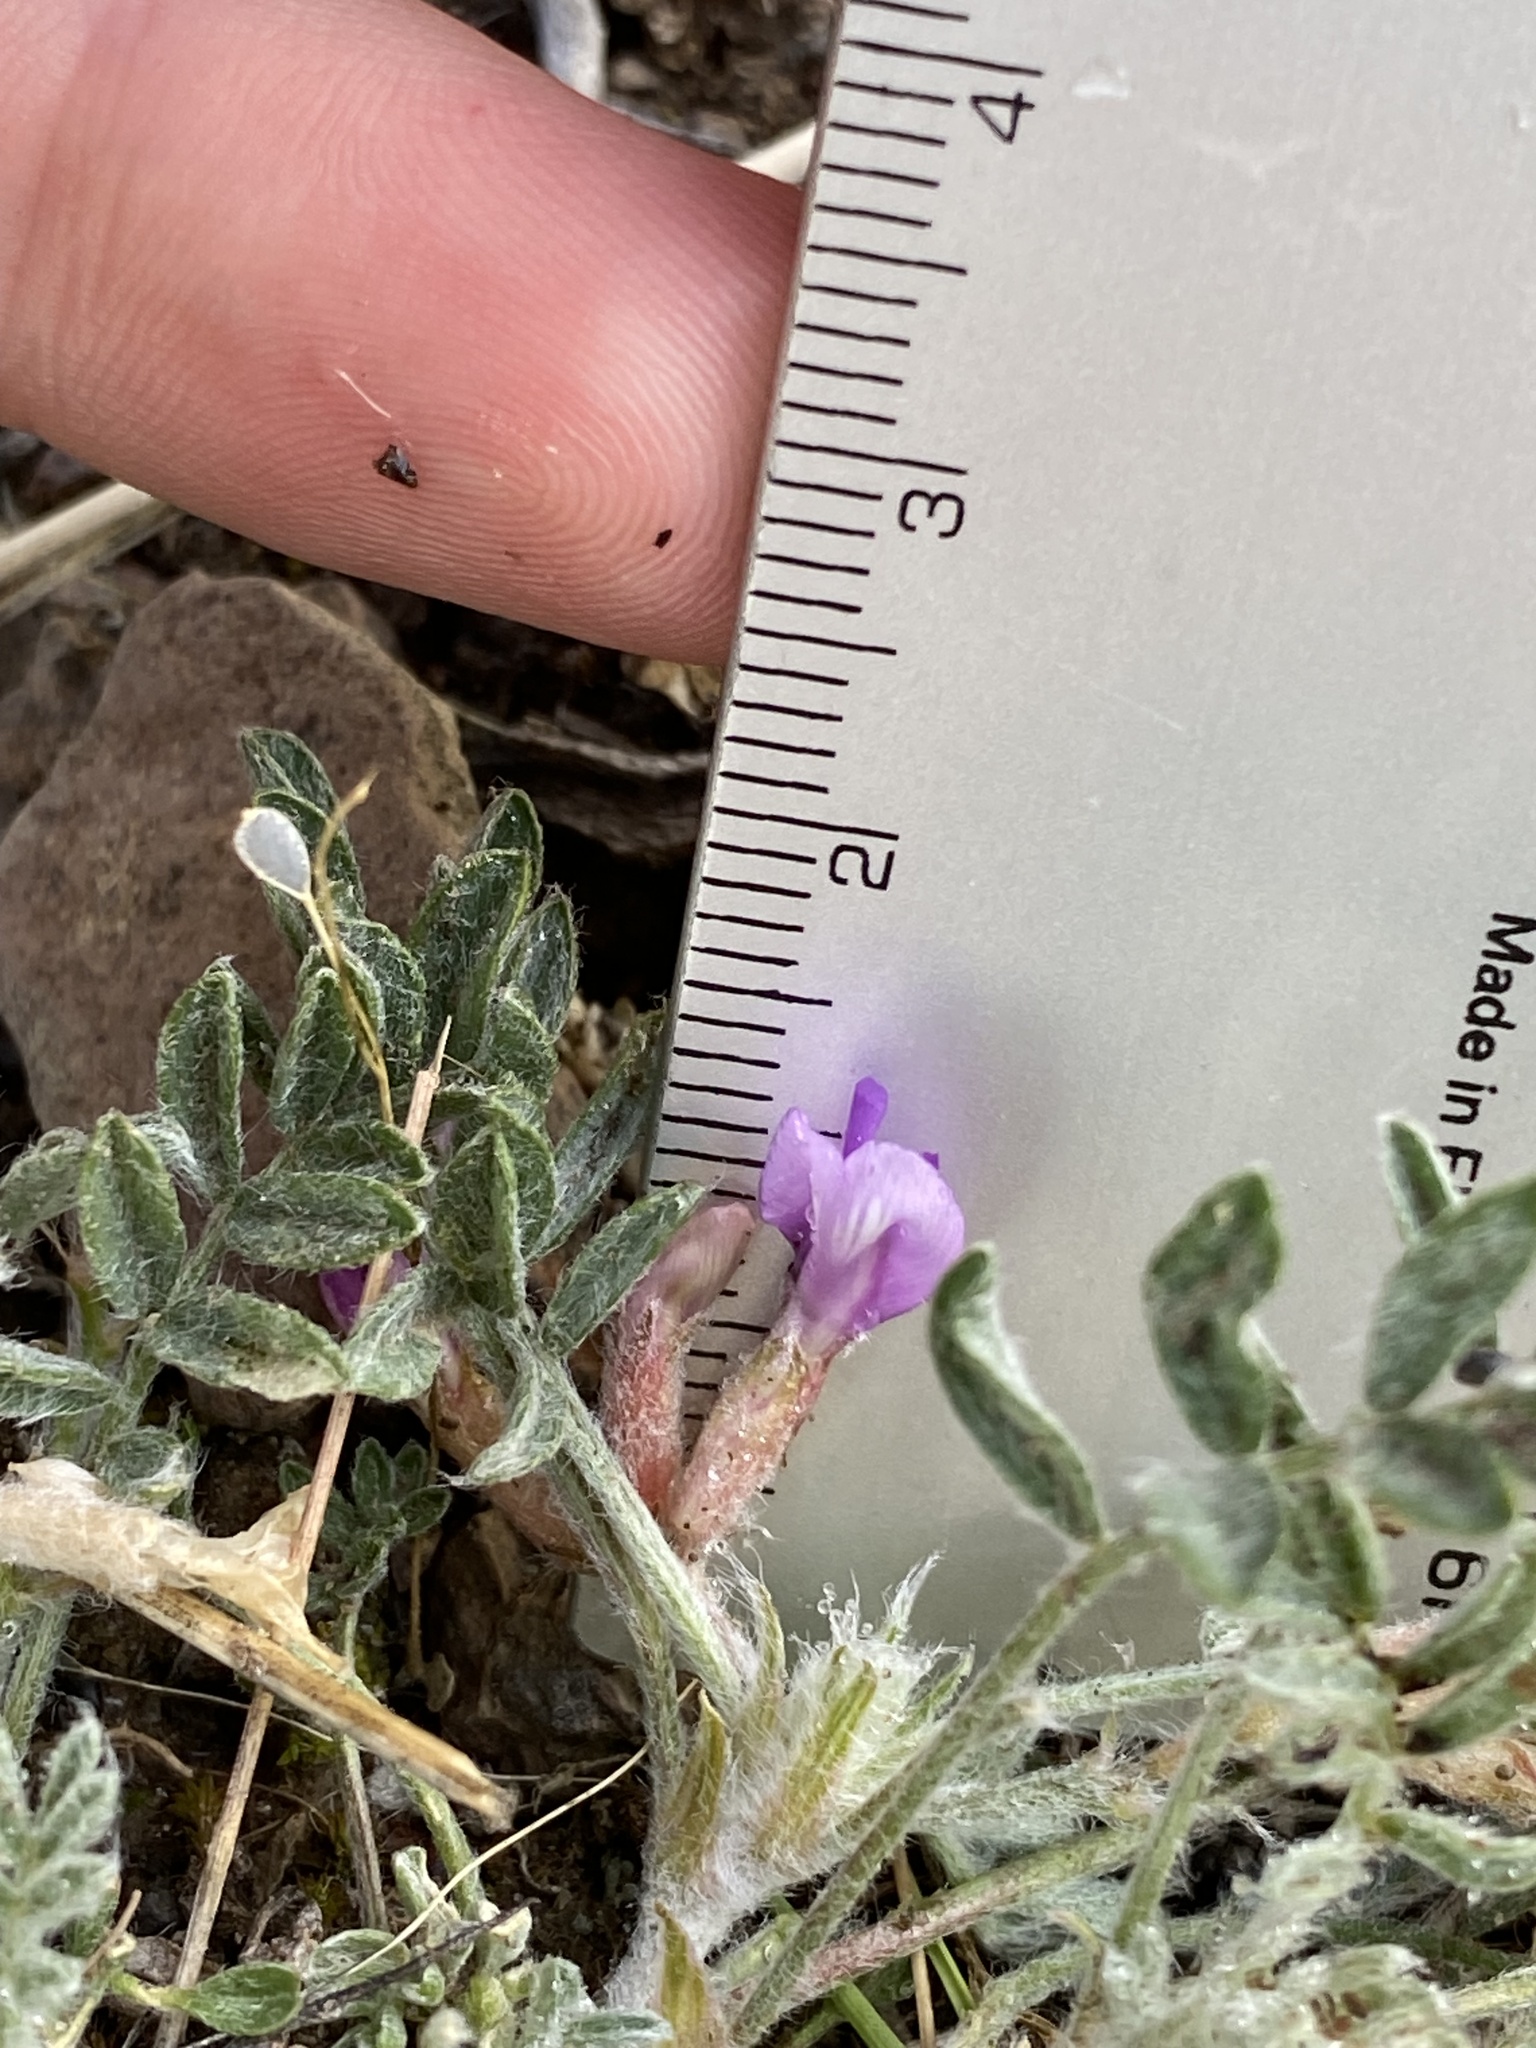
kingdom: Plantae
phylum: Tracheophyta
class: Magnoliopsida
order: Fabales
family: Fabaceae
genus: Astragalus
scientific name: Astragalus purshii
